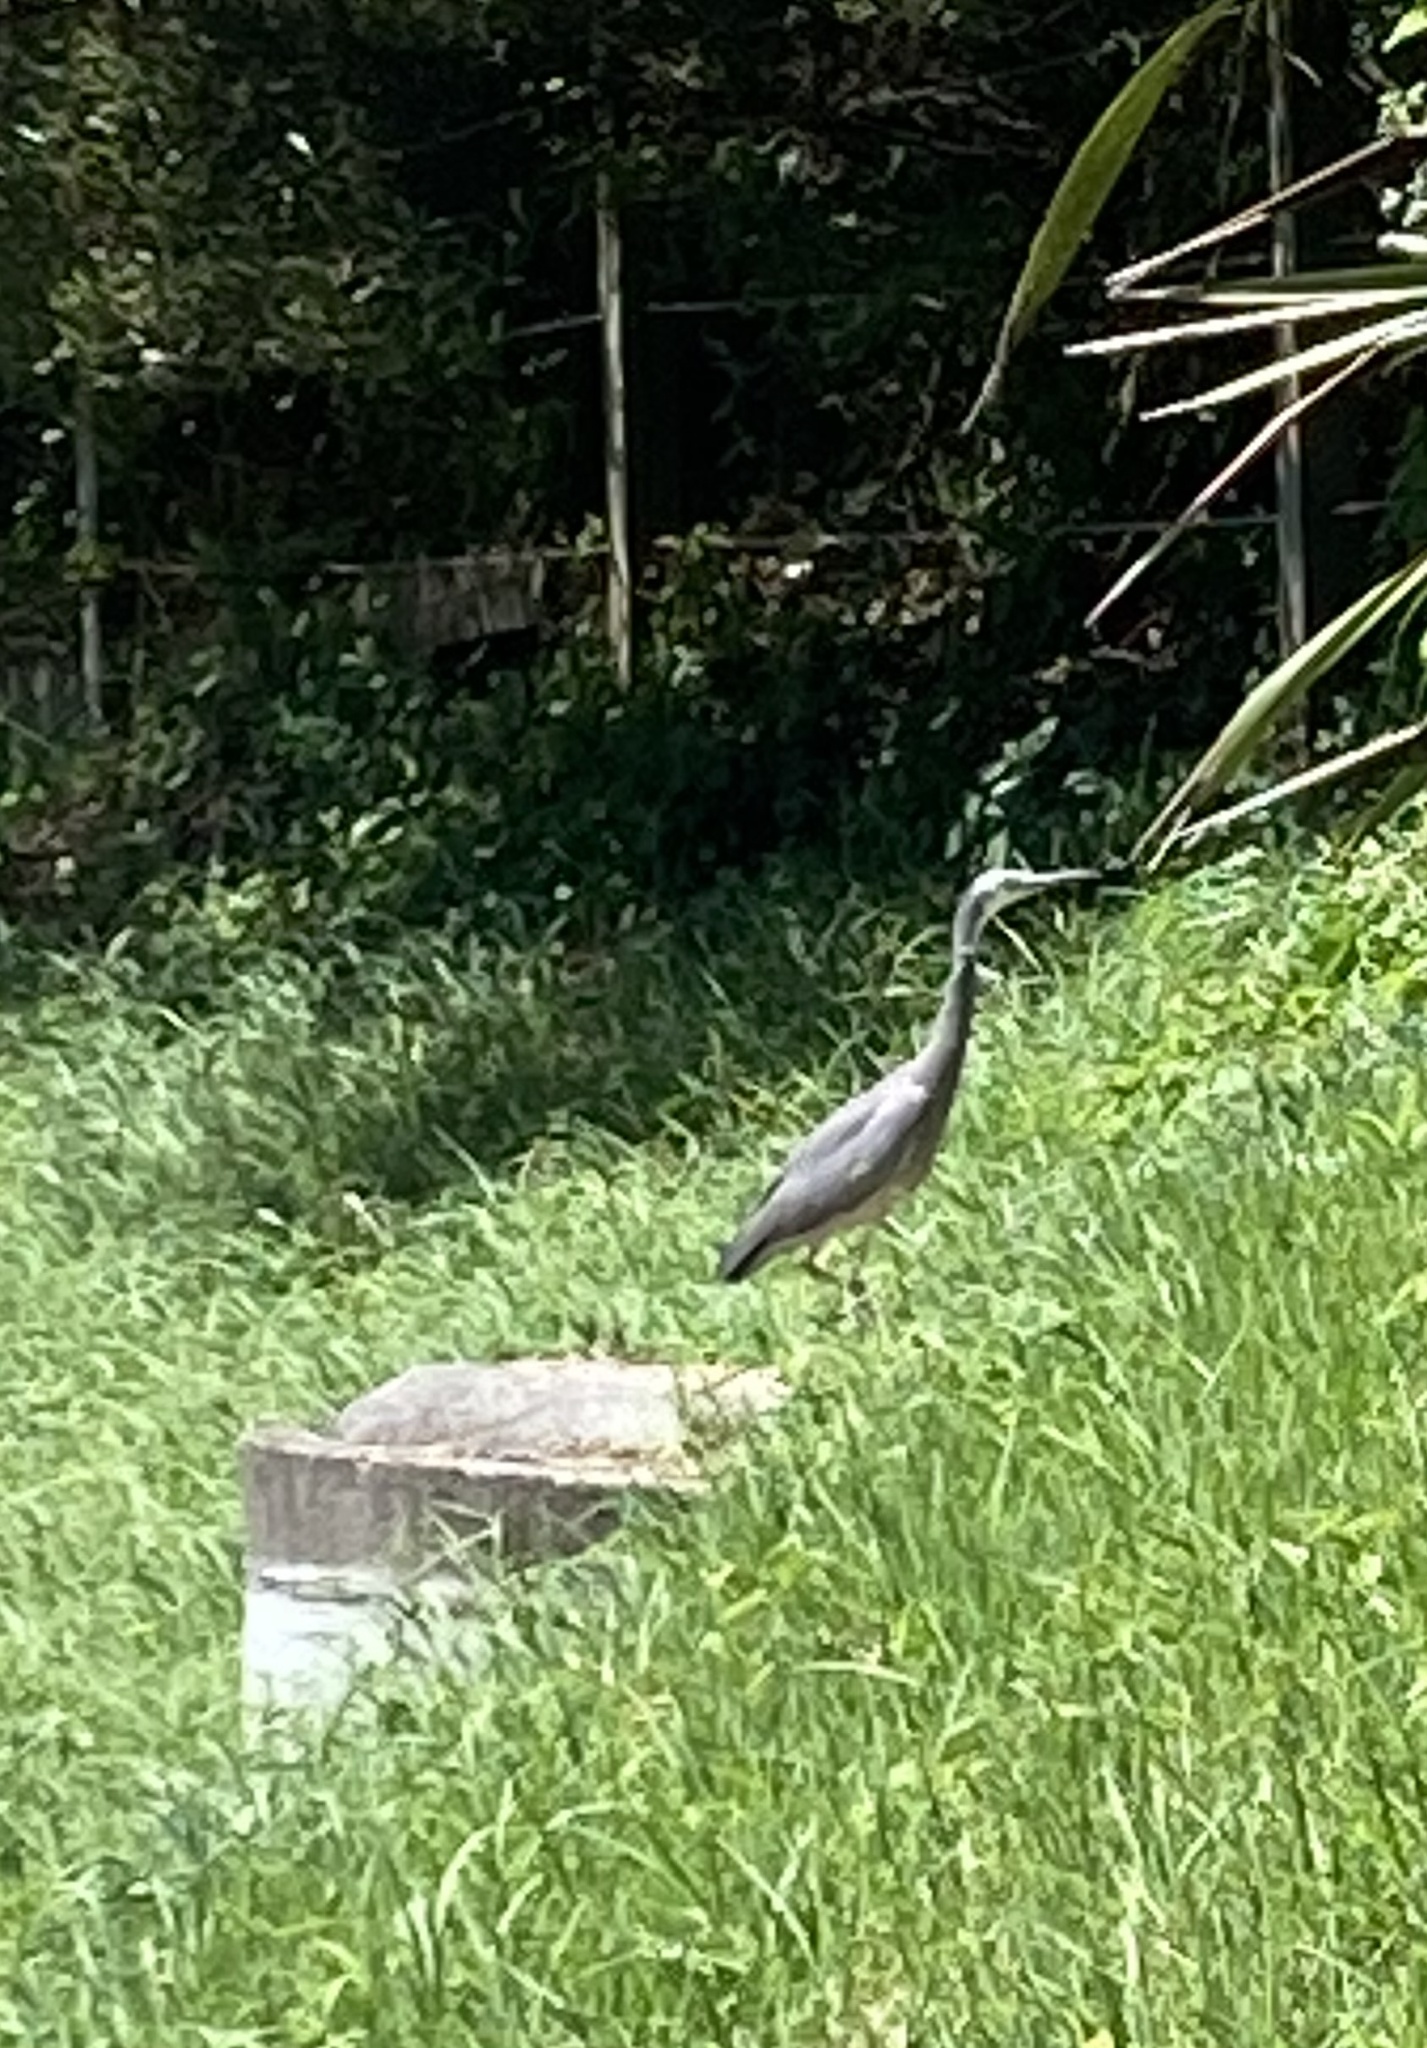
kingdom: Animalia
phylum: Chordata
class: Aves
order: Pelecaniformes
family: Ardeidae
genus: Egretta
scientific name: Egretta novaehollandiae
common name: White-faced heron
